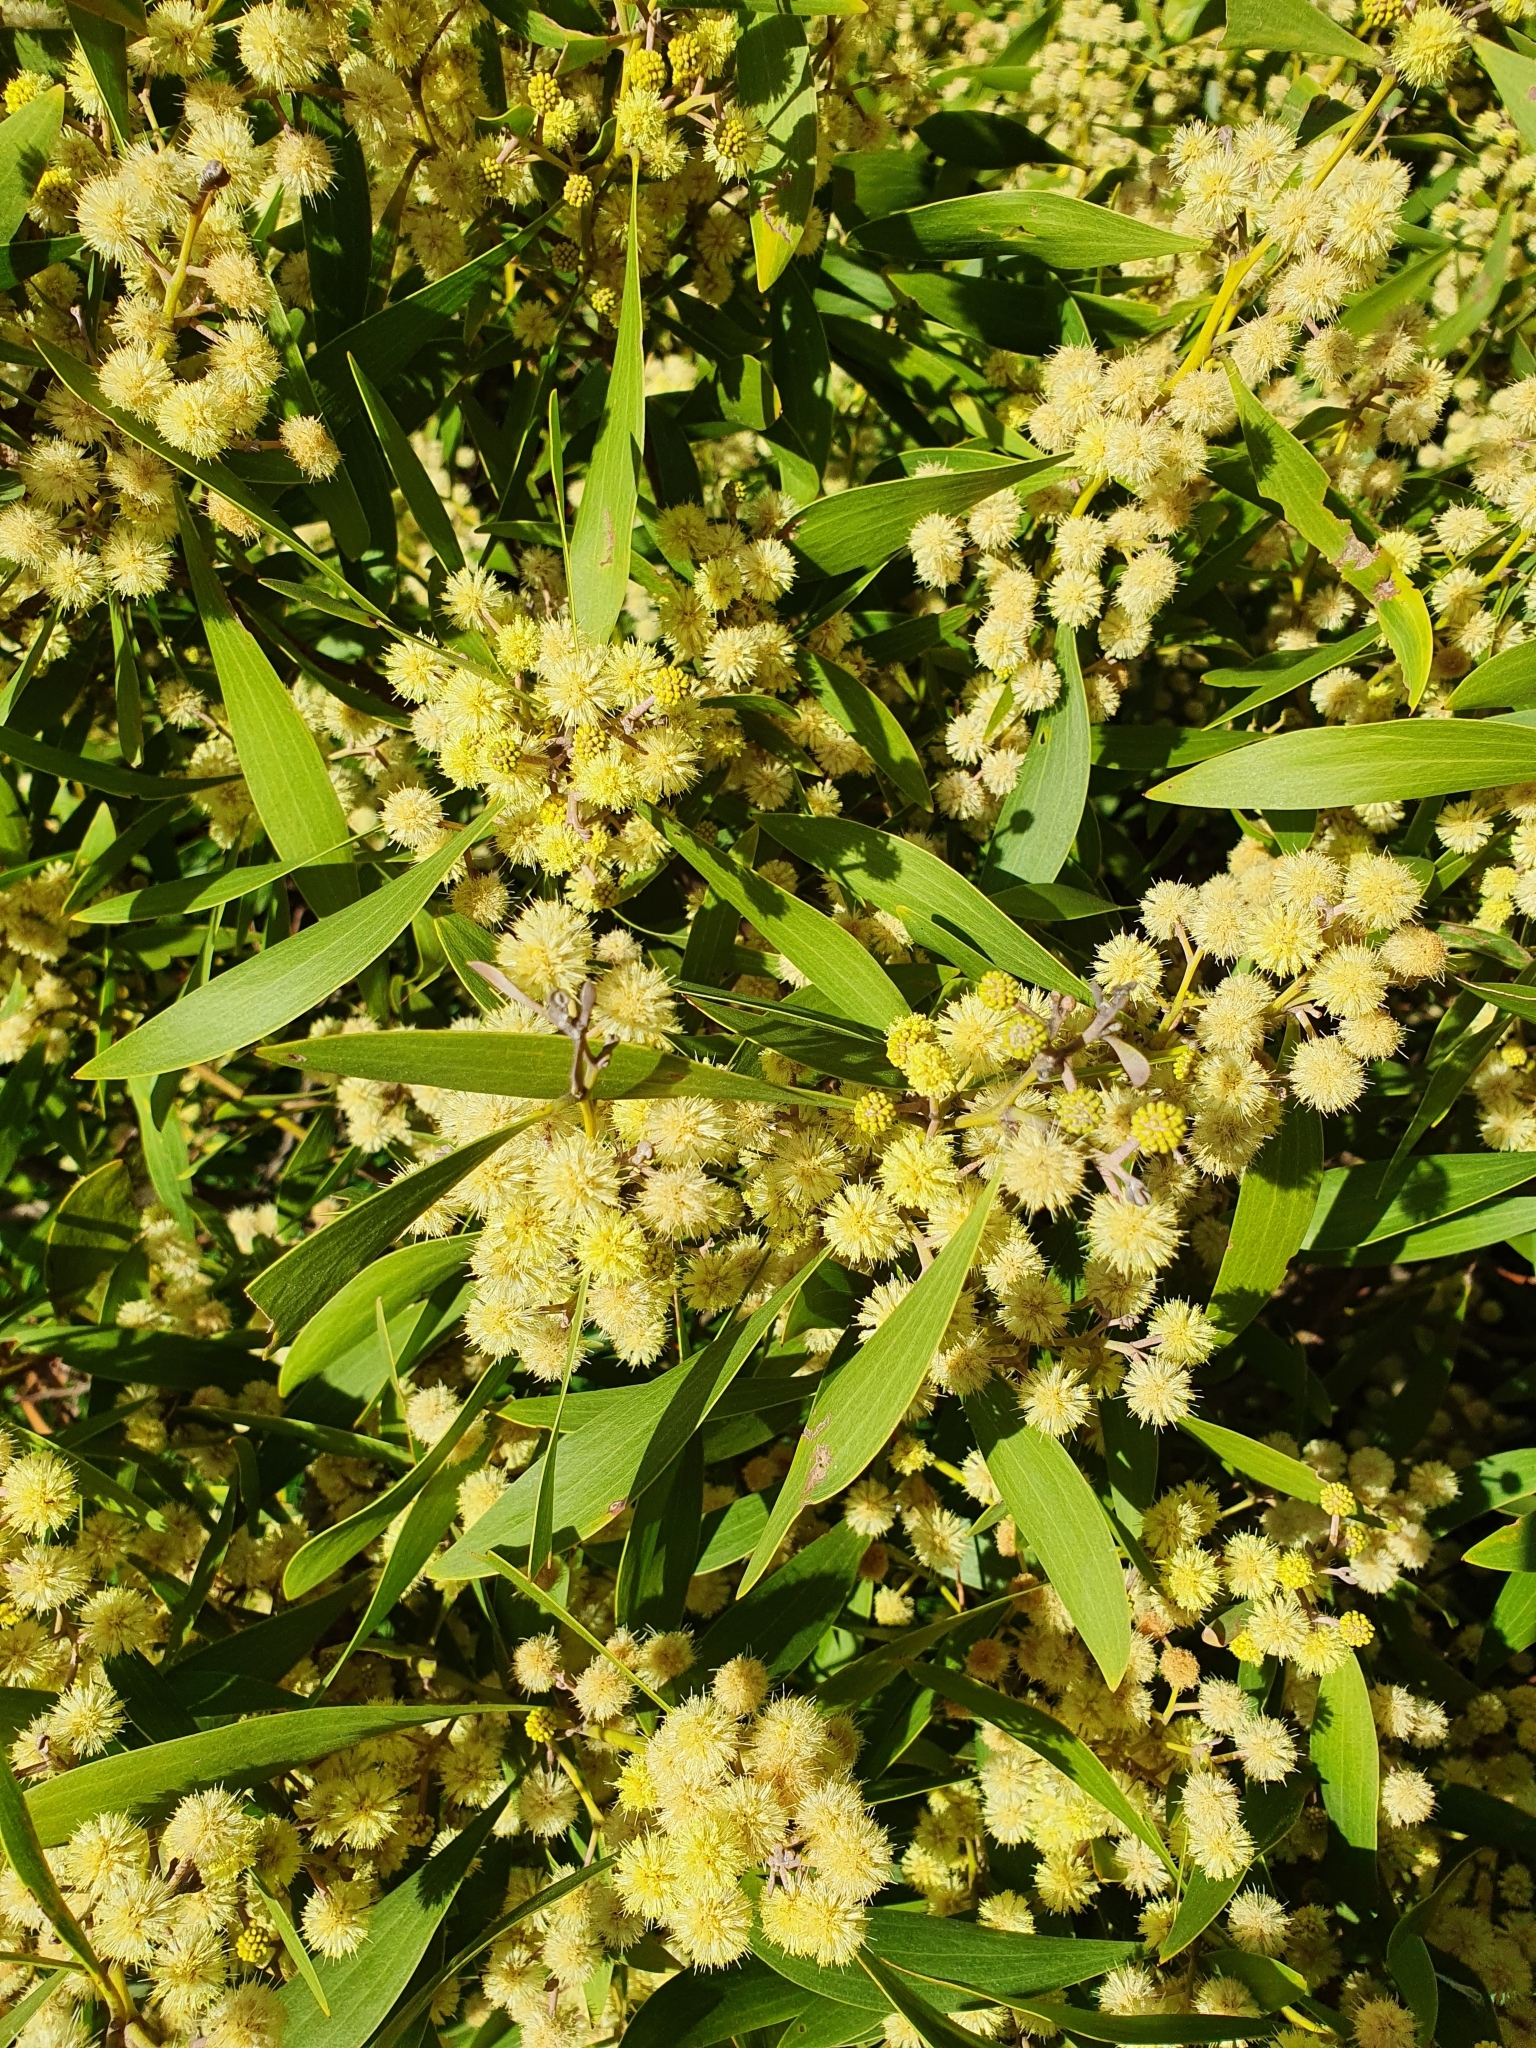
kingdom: Plantae
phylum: Tracheophyta
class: Magnoliopsida
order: Fabales
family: Fabaceae
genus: Acacia
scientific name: Acacia melanoxylon
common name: Blackwood
